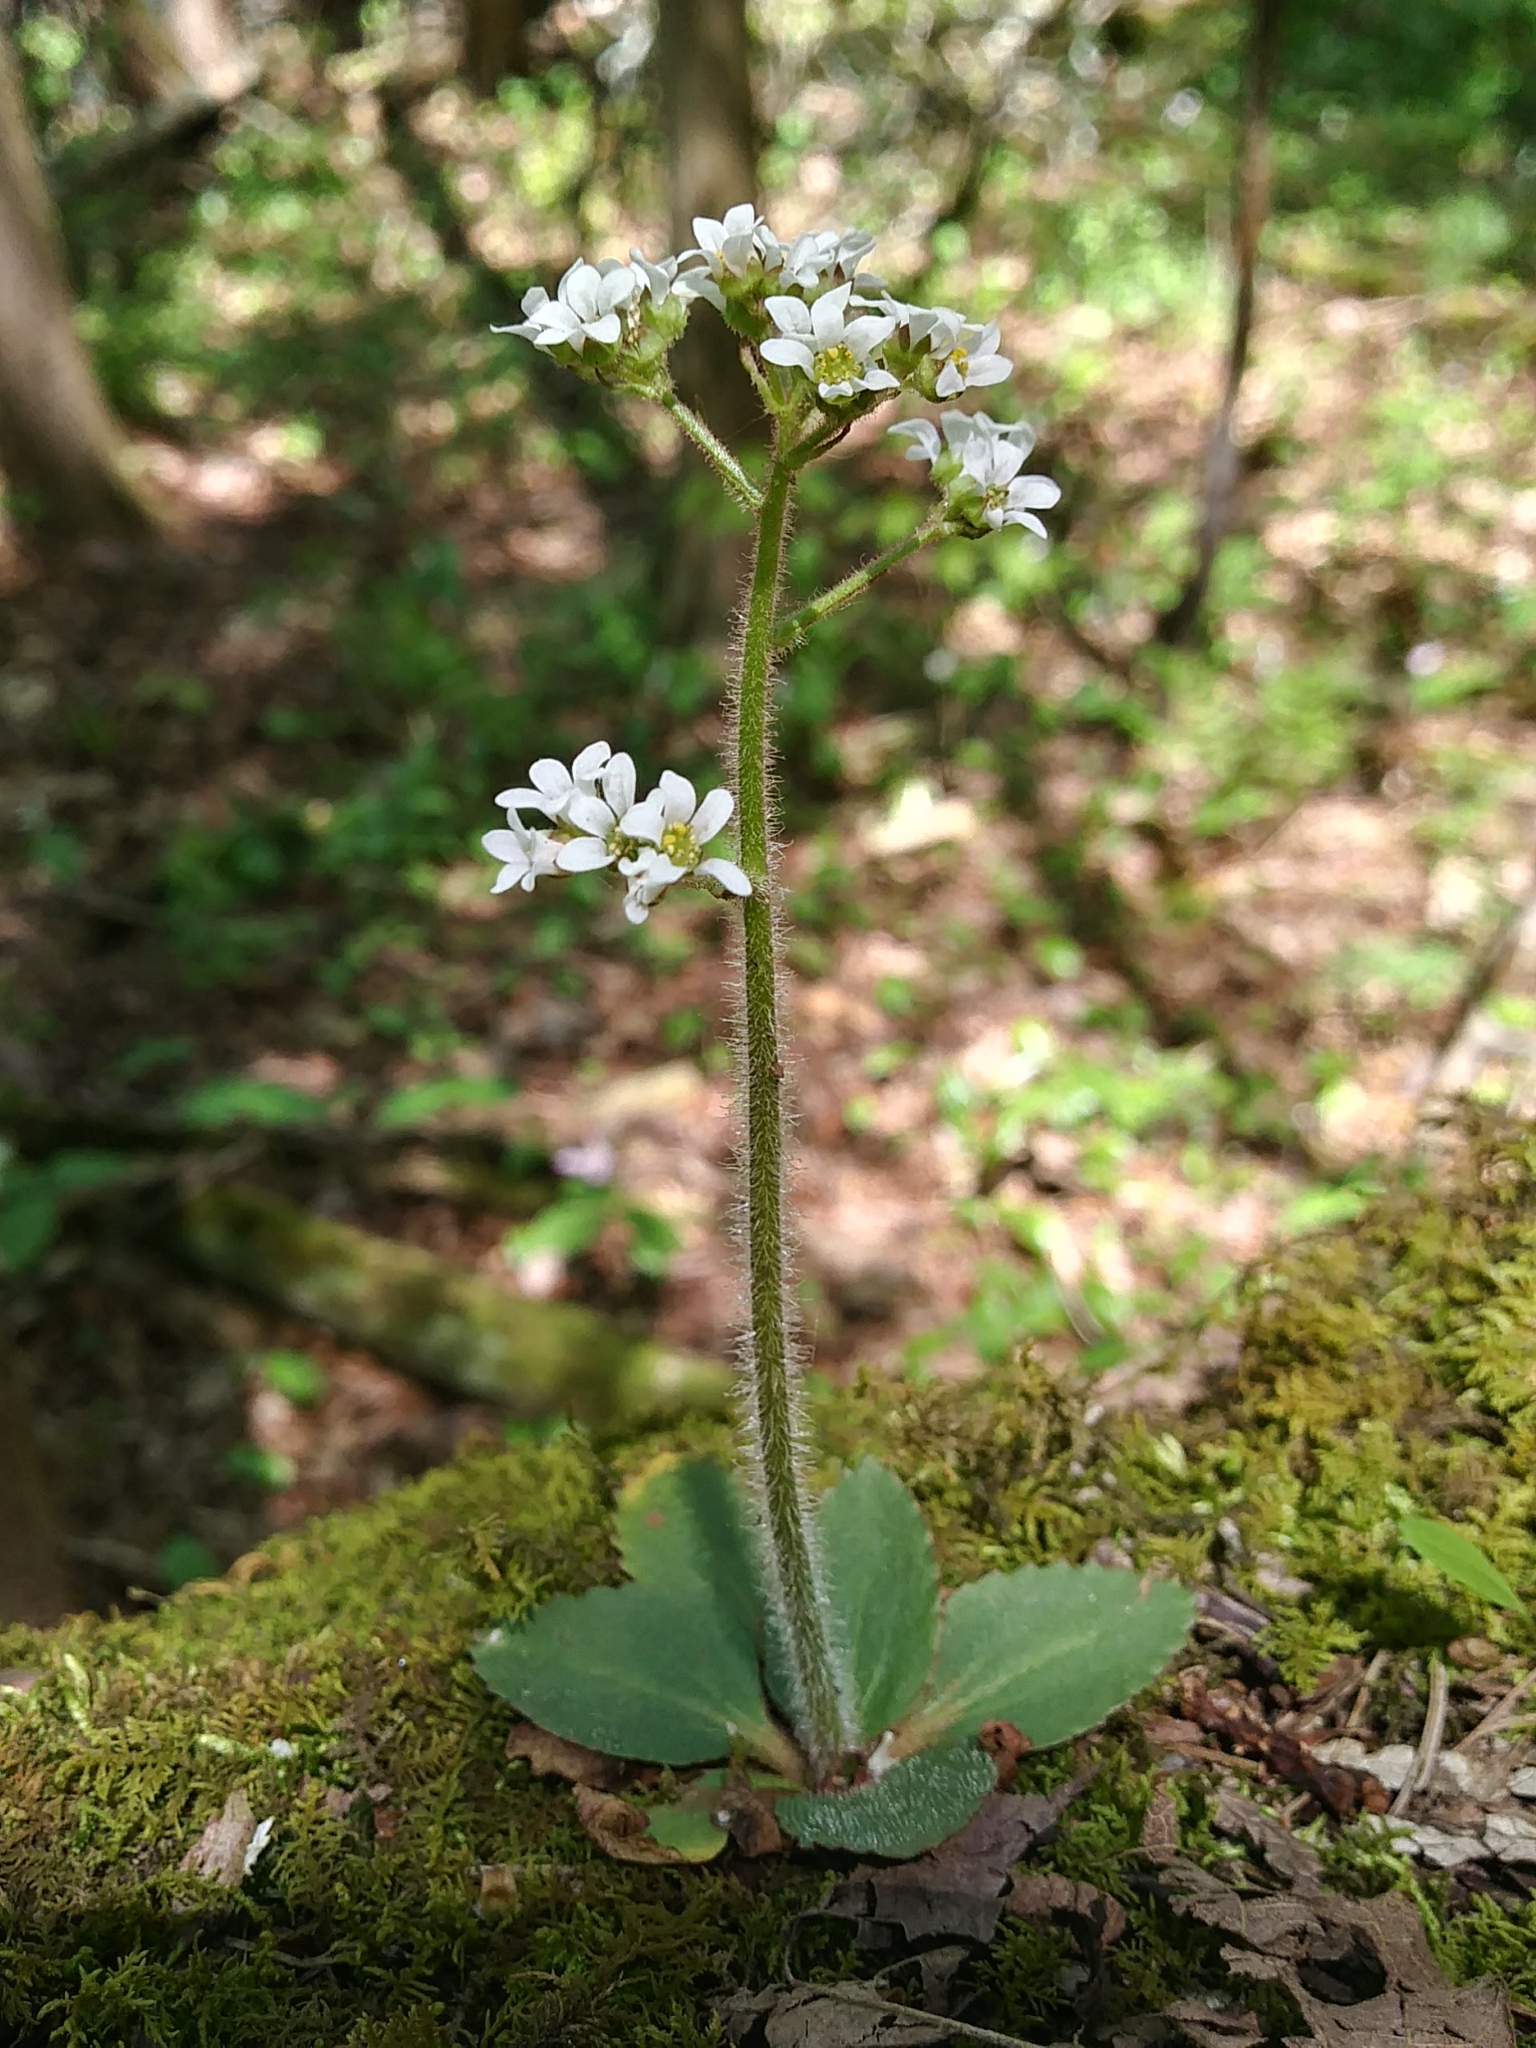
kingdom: Plantae
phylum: Tracheophyta
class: Magnoliopsida
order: Saxifragales
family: Saxifragaceae
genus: Micranthes
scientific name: Micranthes virginiensis
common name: Early saxifrage
